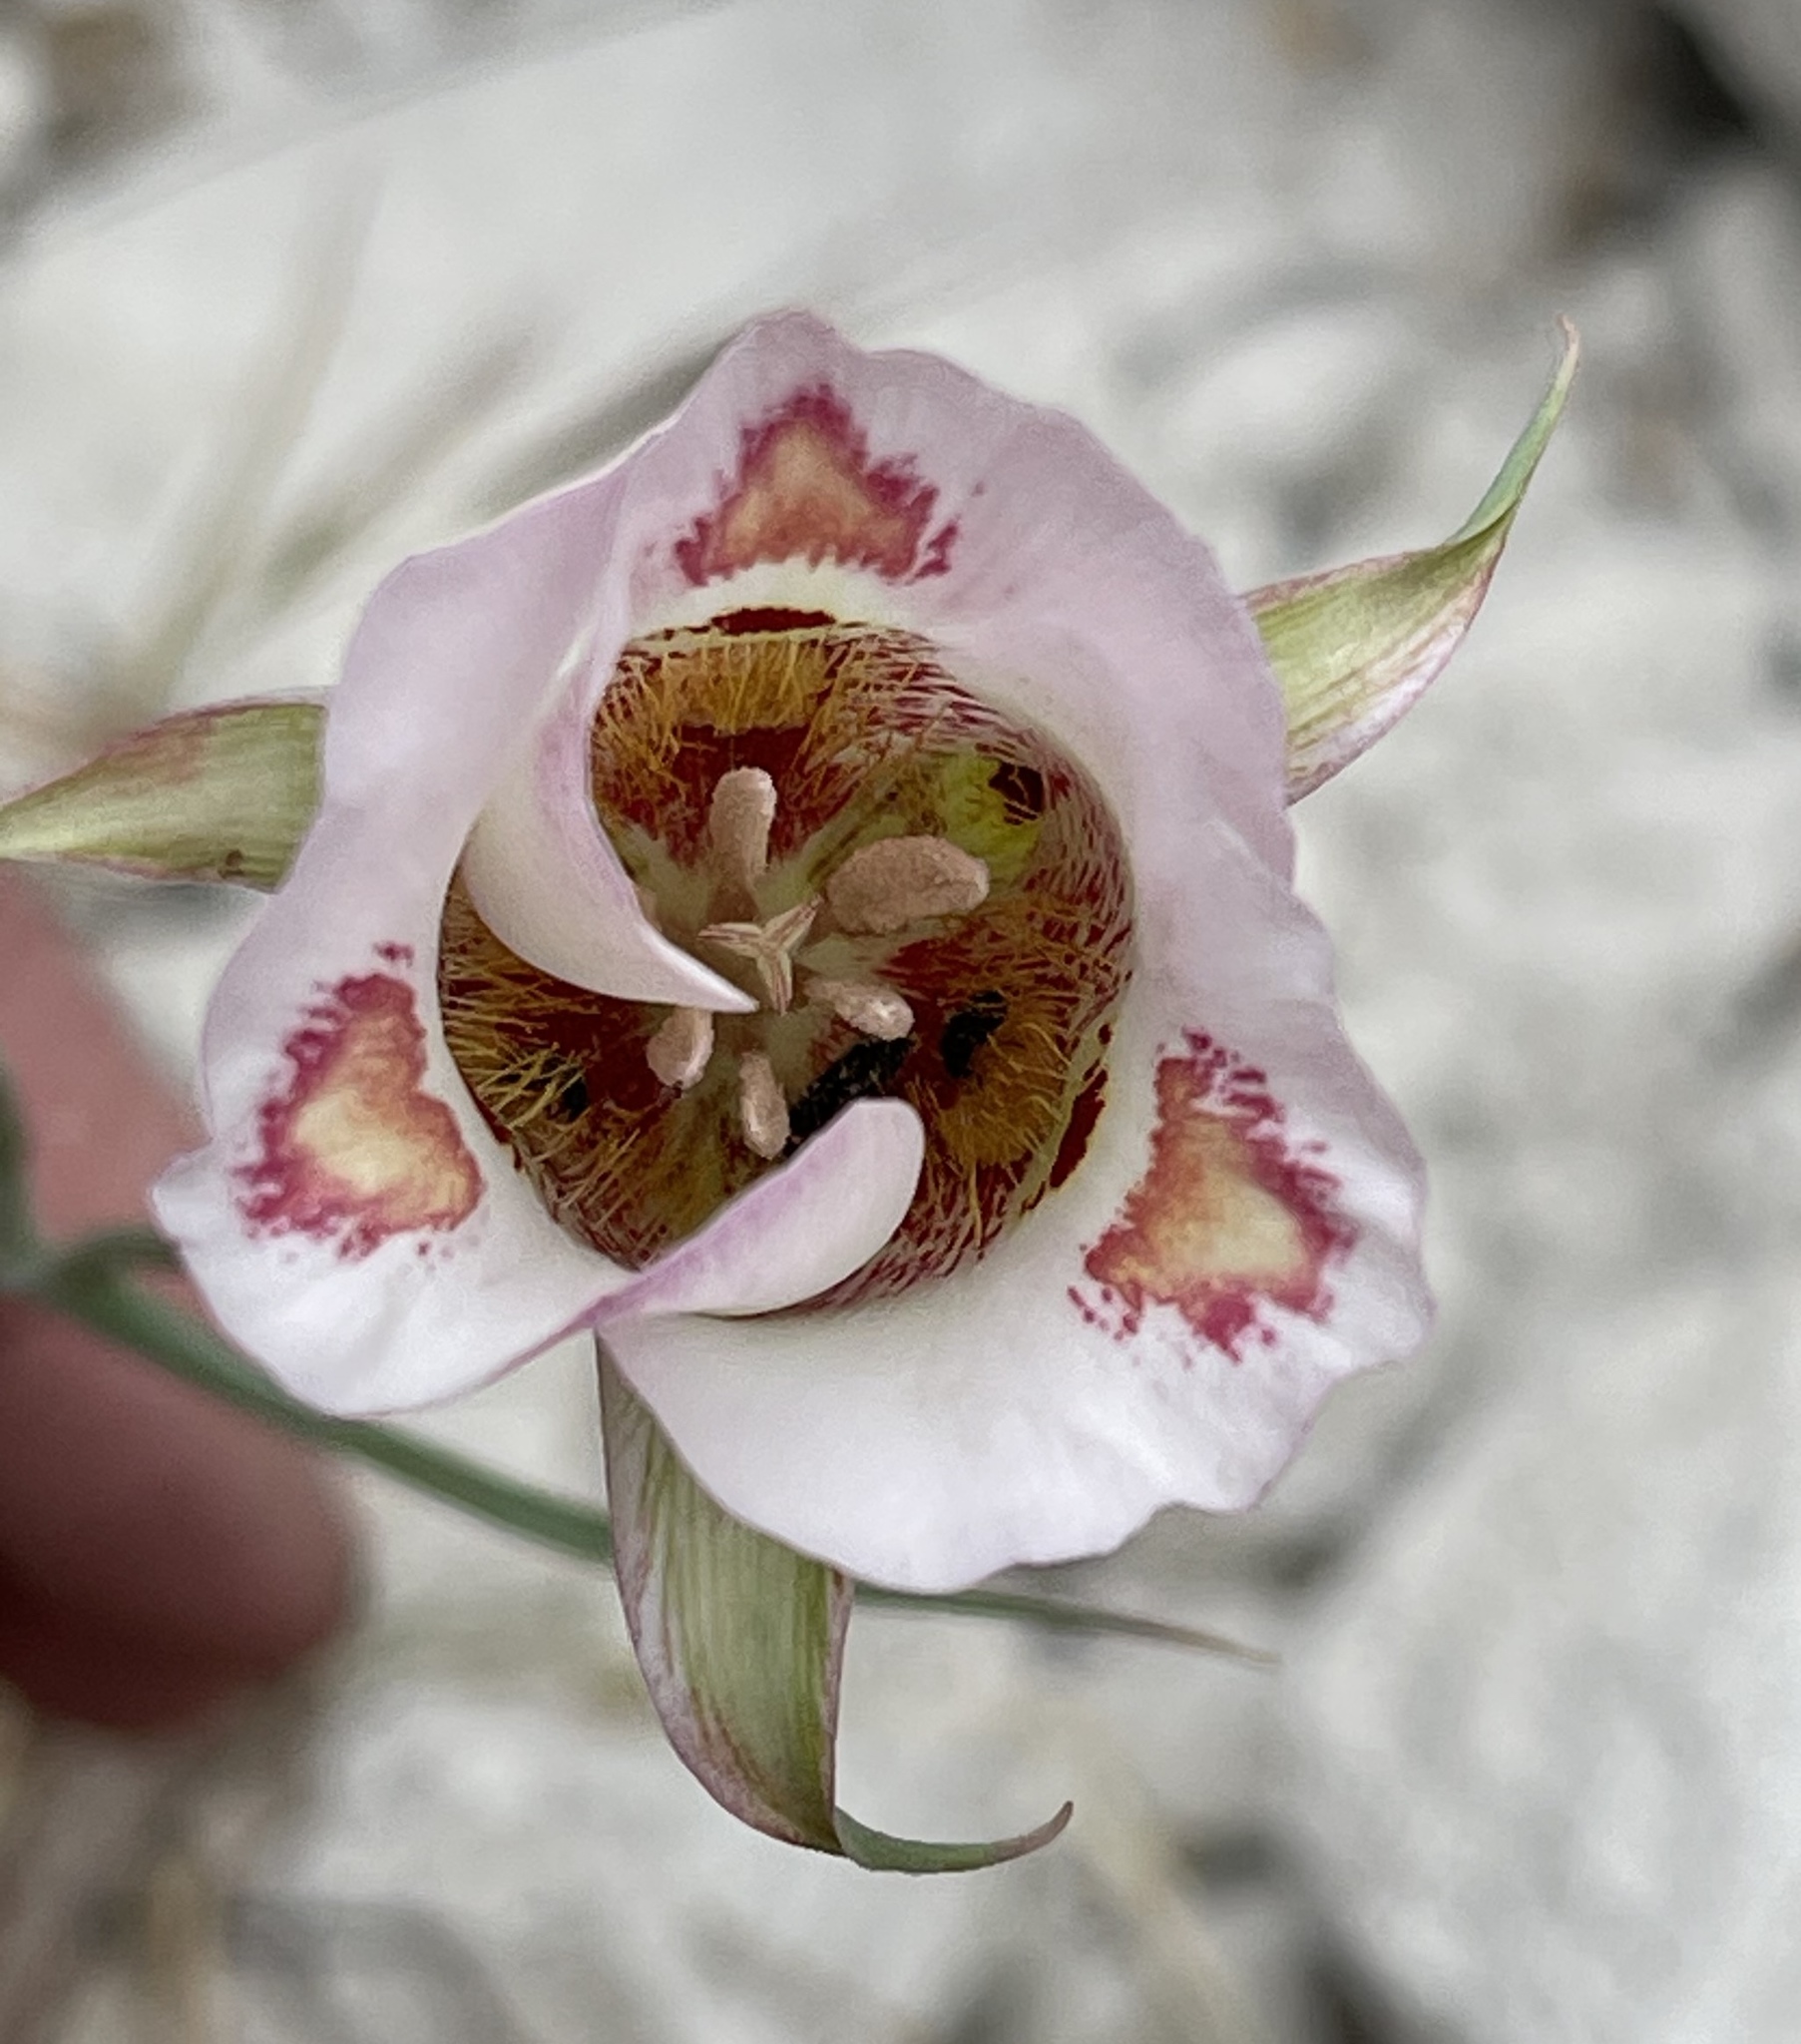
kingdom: Plantae
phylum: Tracheophyta
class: Liliopsida
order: Liliales
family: Liliaceae
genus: Calochortus
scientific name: Calochortus venustus
